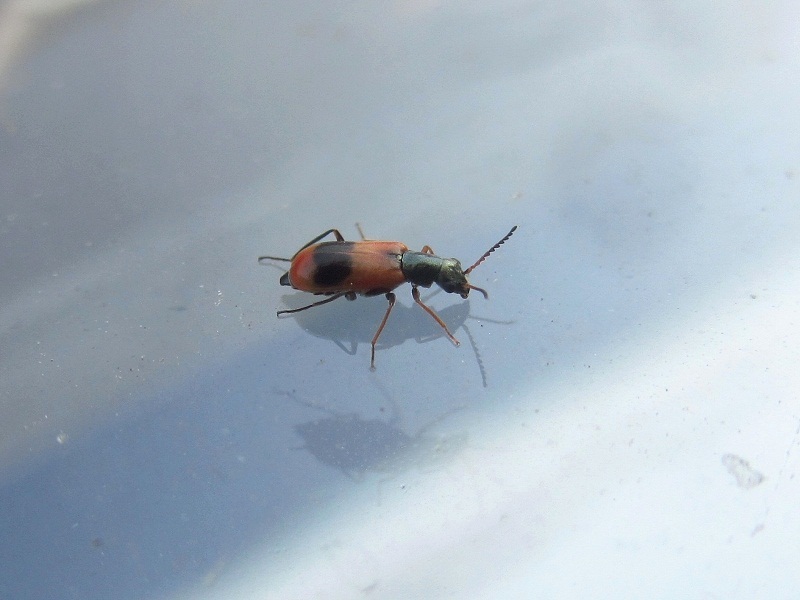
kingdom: Animalia
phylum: Arthropoda
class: Insecta
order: Coleoptera
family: Melyridae
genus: Anthocomus
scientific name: Anthocomus equestris
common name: Black-banded soft-winged flower beetle
